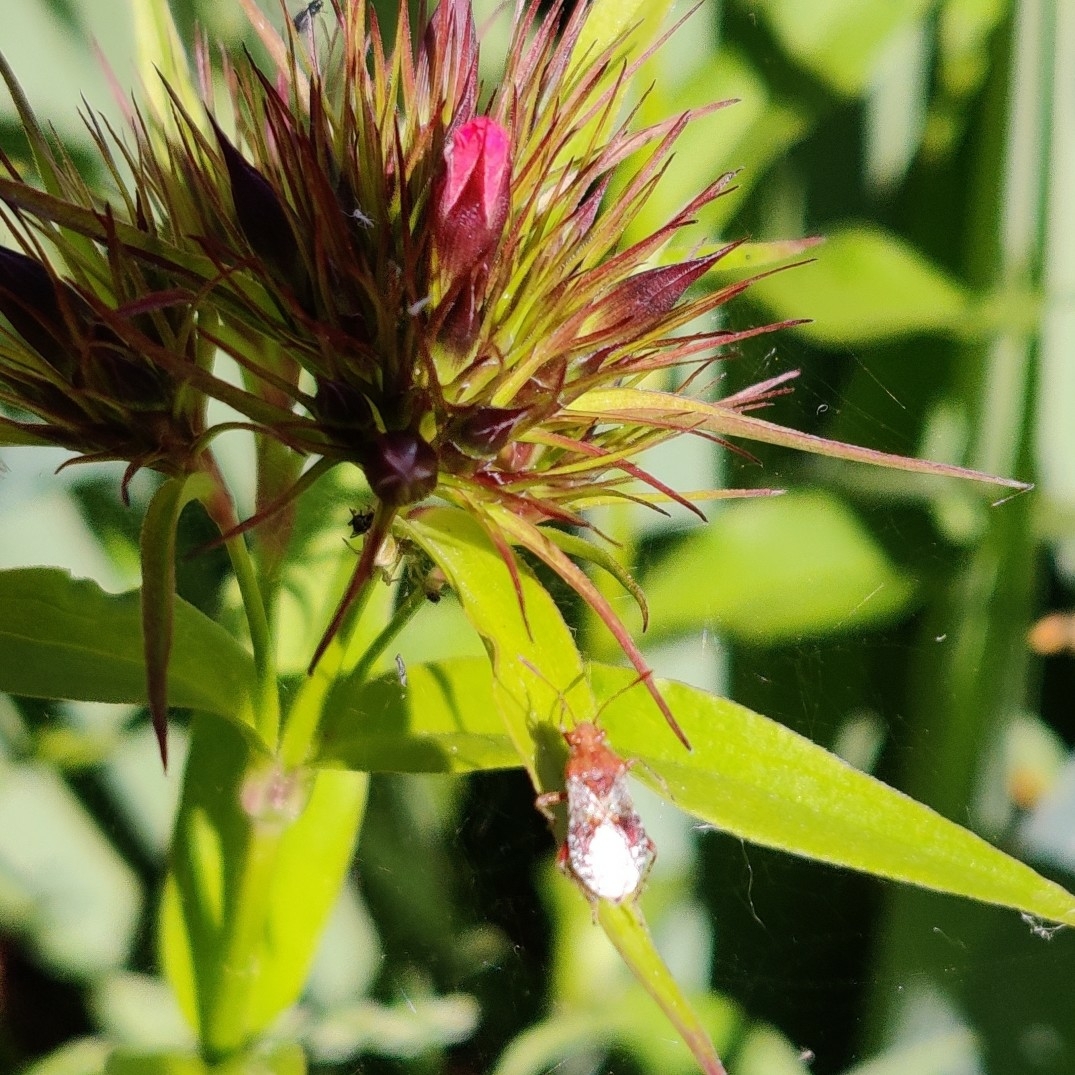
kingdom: Animalia
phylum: Arthropoda
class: Insecta
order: Hemiptera
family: Rhopalidae
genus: Rhopalus
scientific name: Rhopalus subrufus
